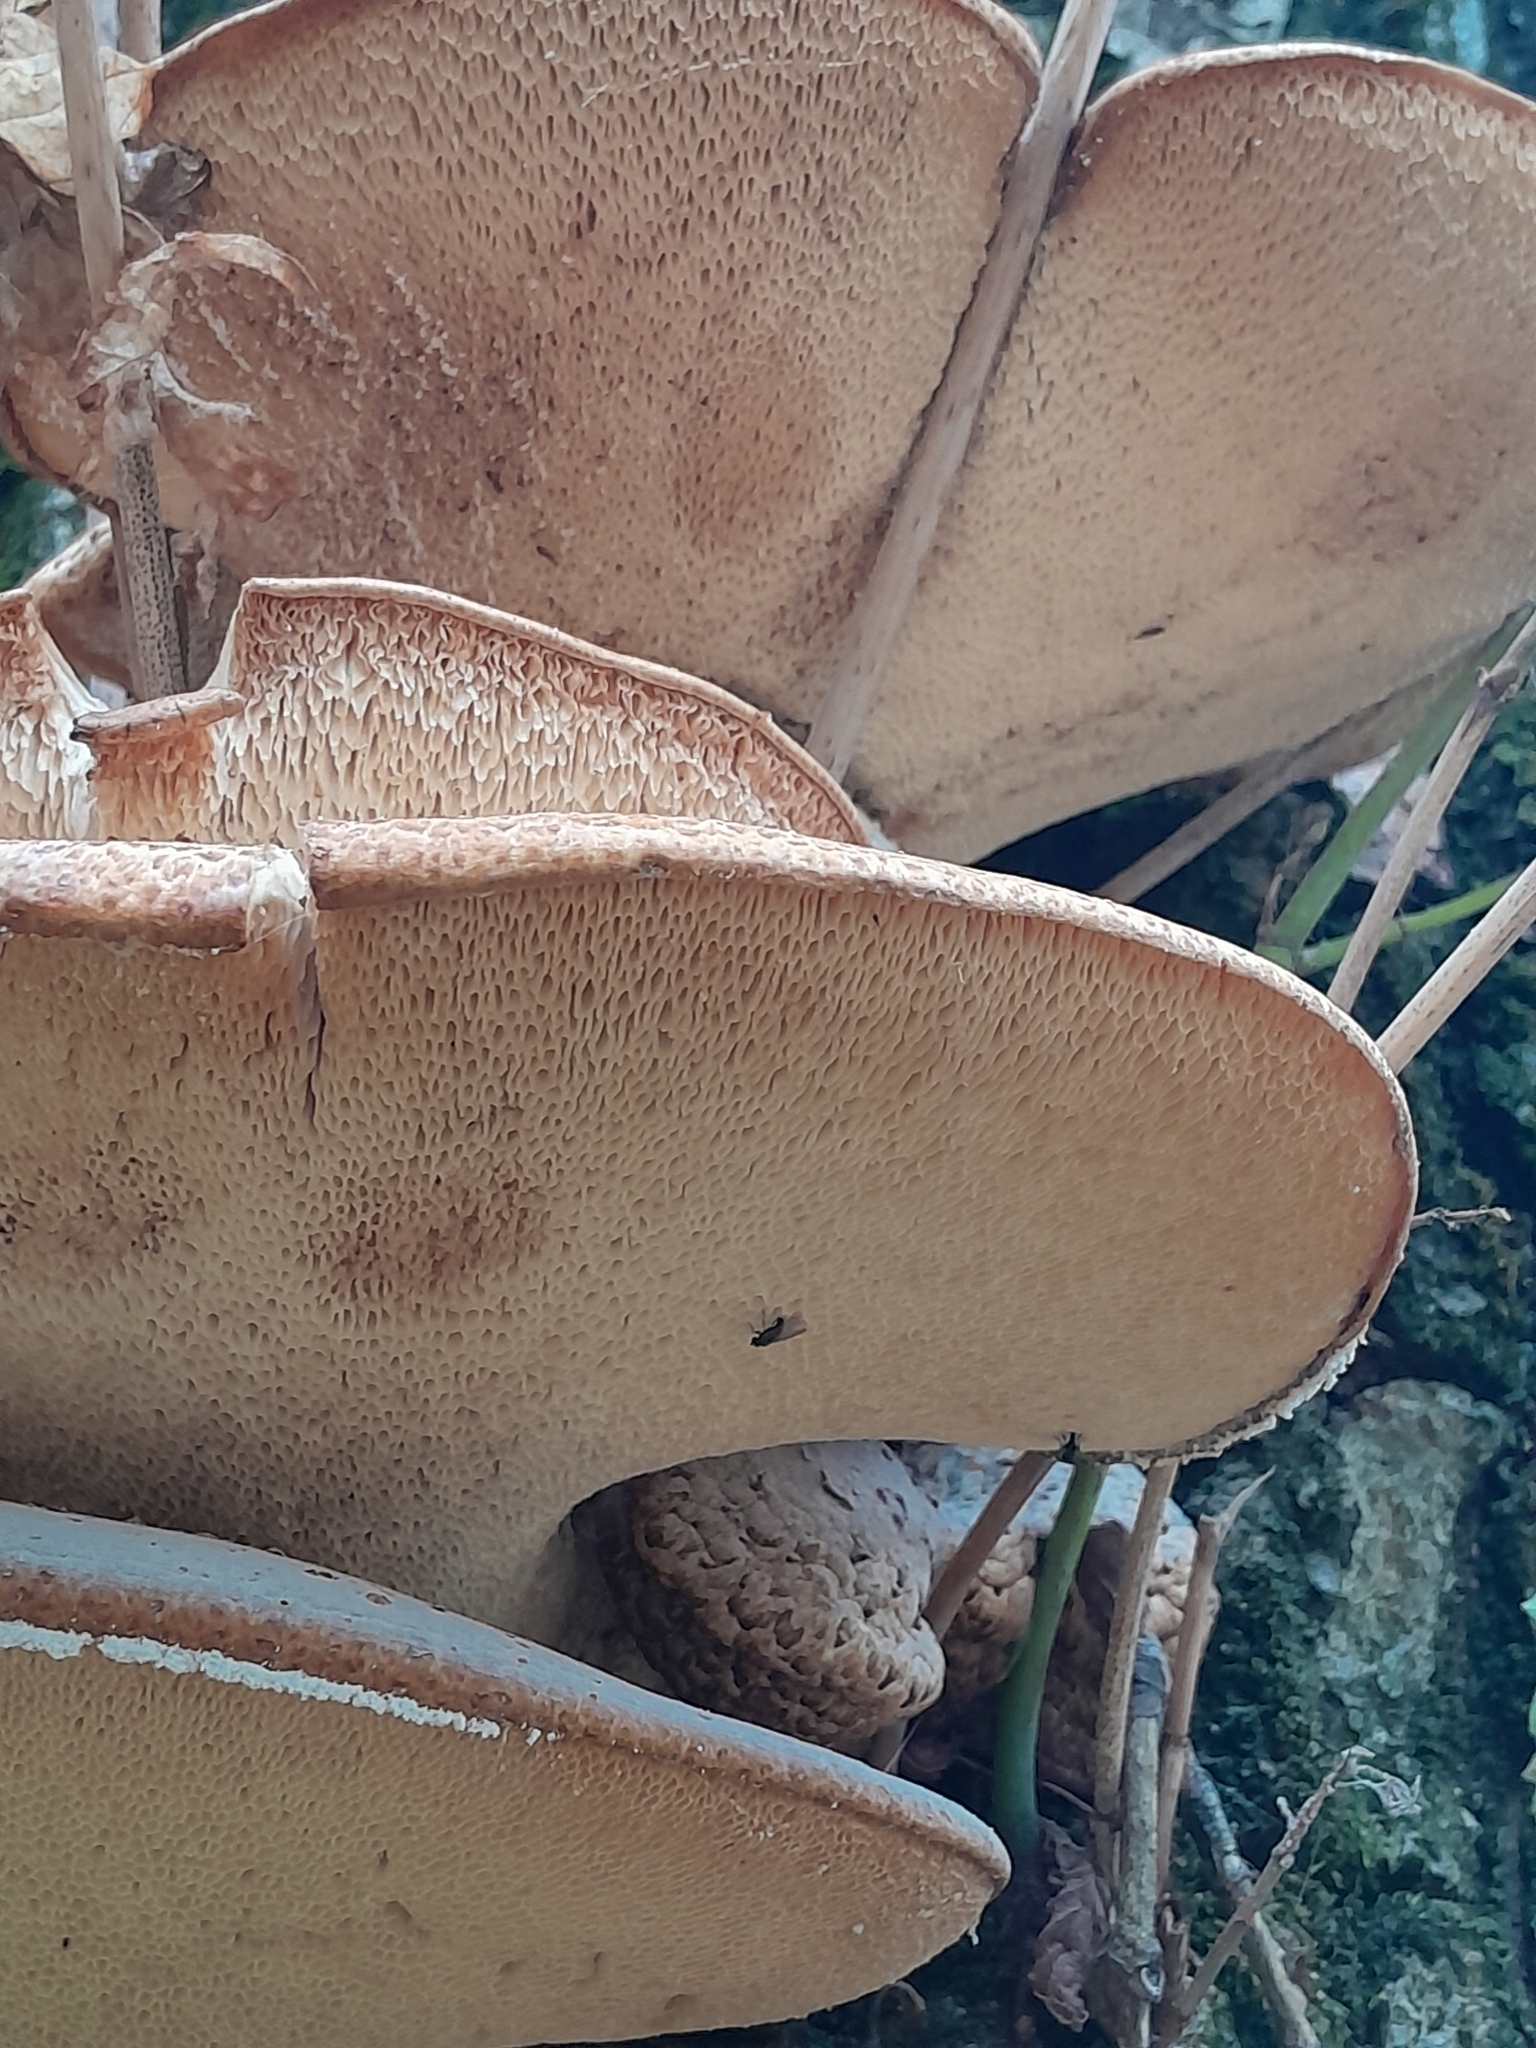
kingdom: Fungi
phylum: Basidiomycota
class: Agaricomycetes
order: Polyporales
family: Polyporaceae
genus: Cerioporus
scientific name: Cerioporus squamosus
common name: Dryad's saddle
